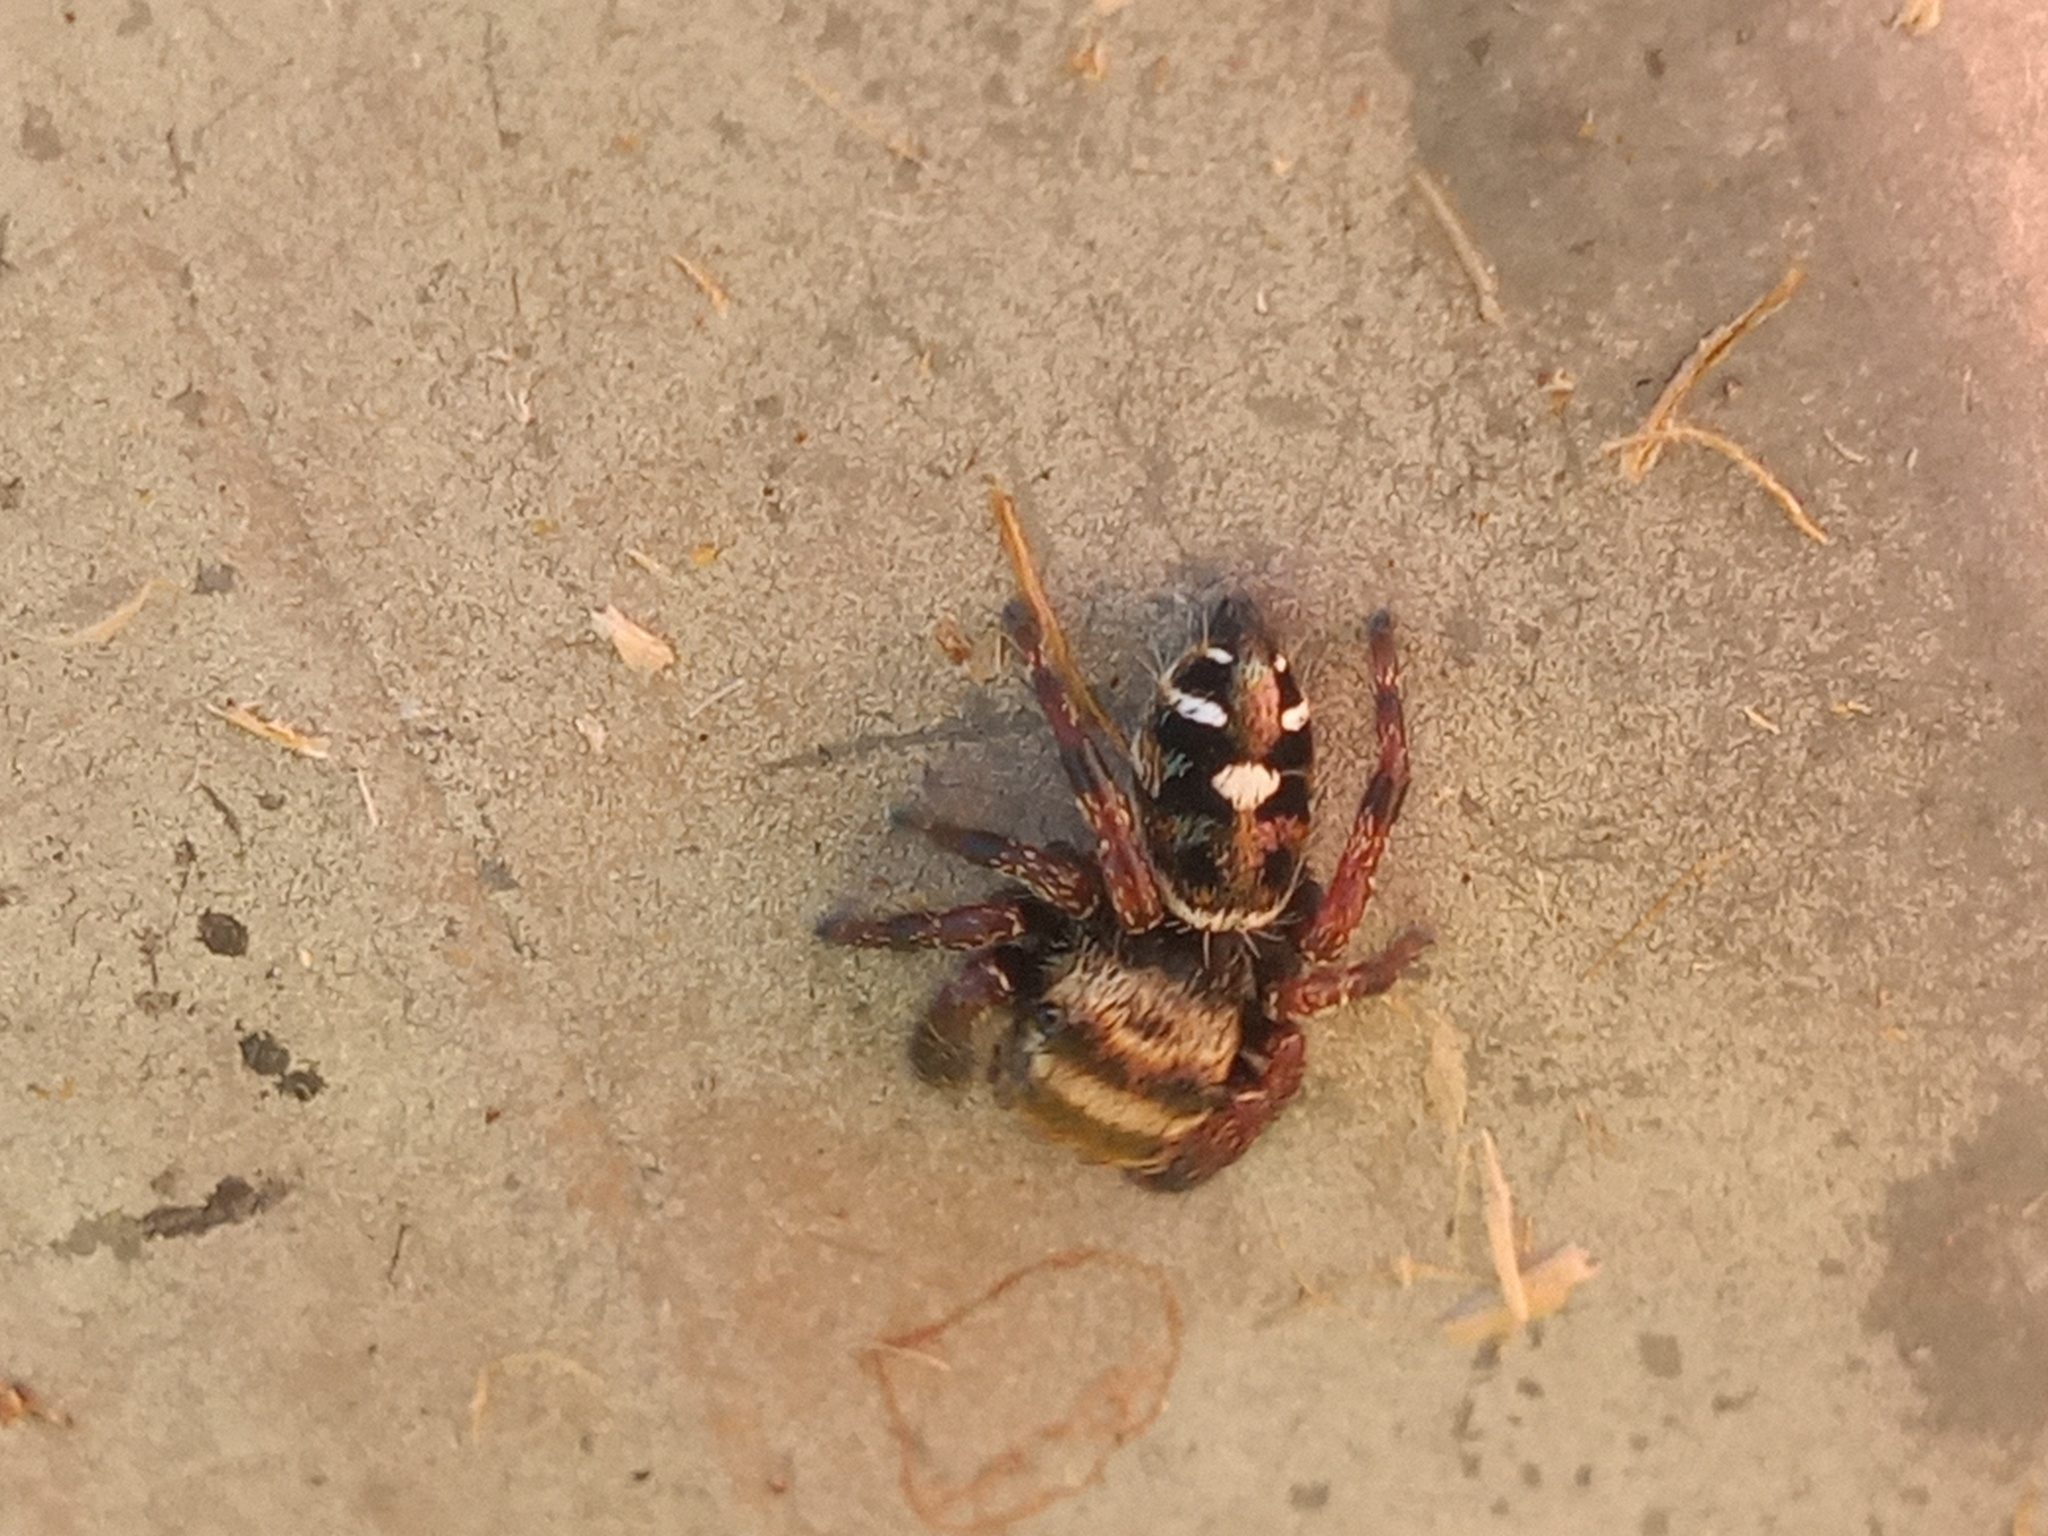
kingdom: Animalia
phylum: Arthropoda
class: Arachnida
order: Araneae
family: Salticidae
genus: Phidippus
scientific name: Phidippus audax
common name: Bold jumper
